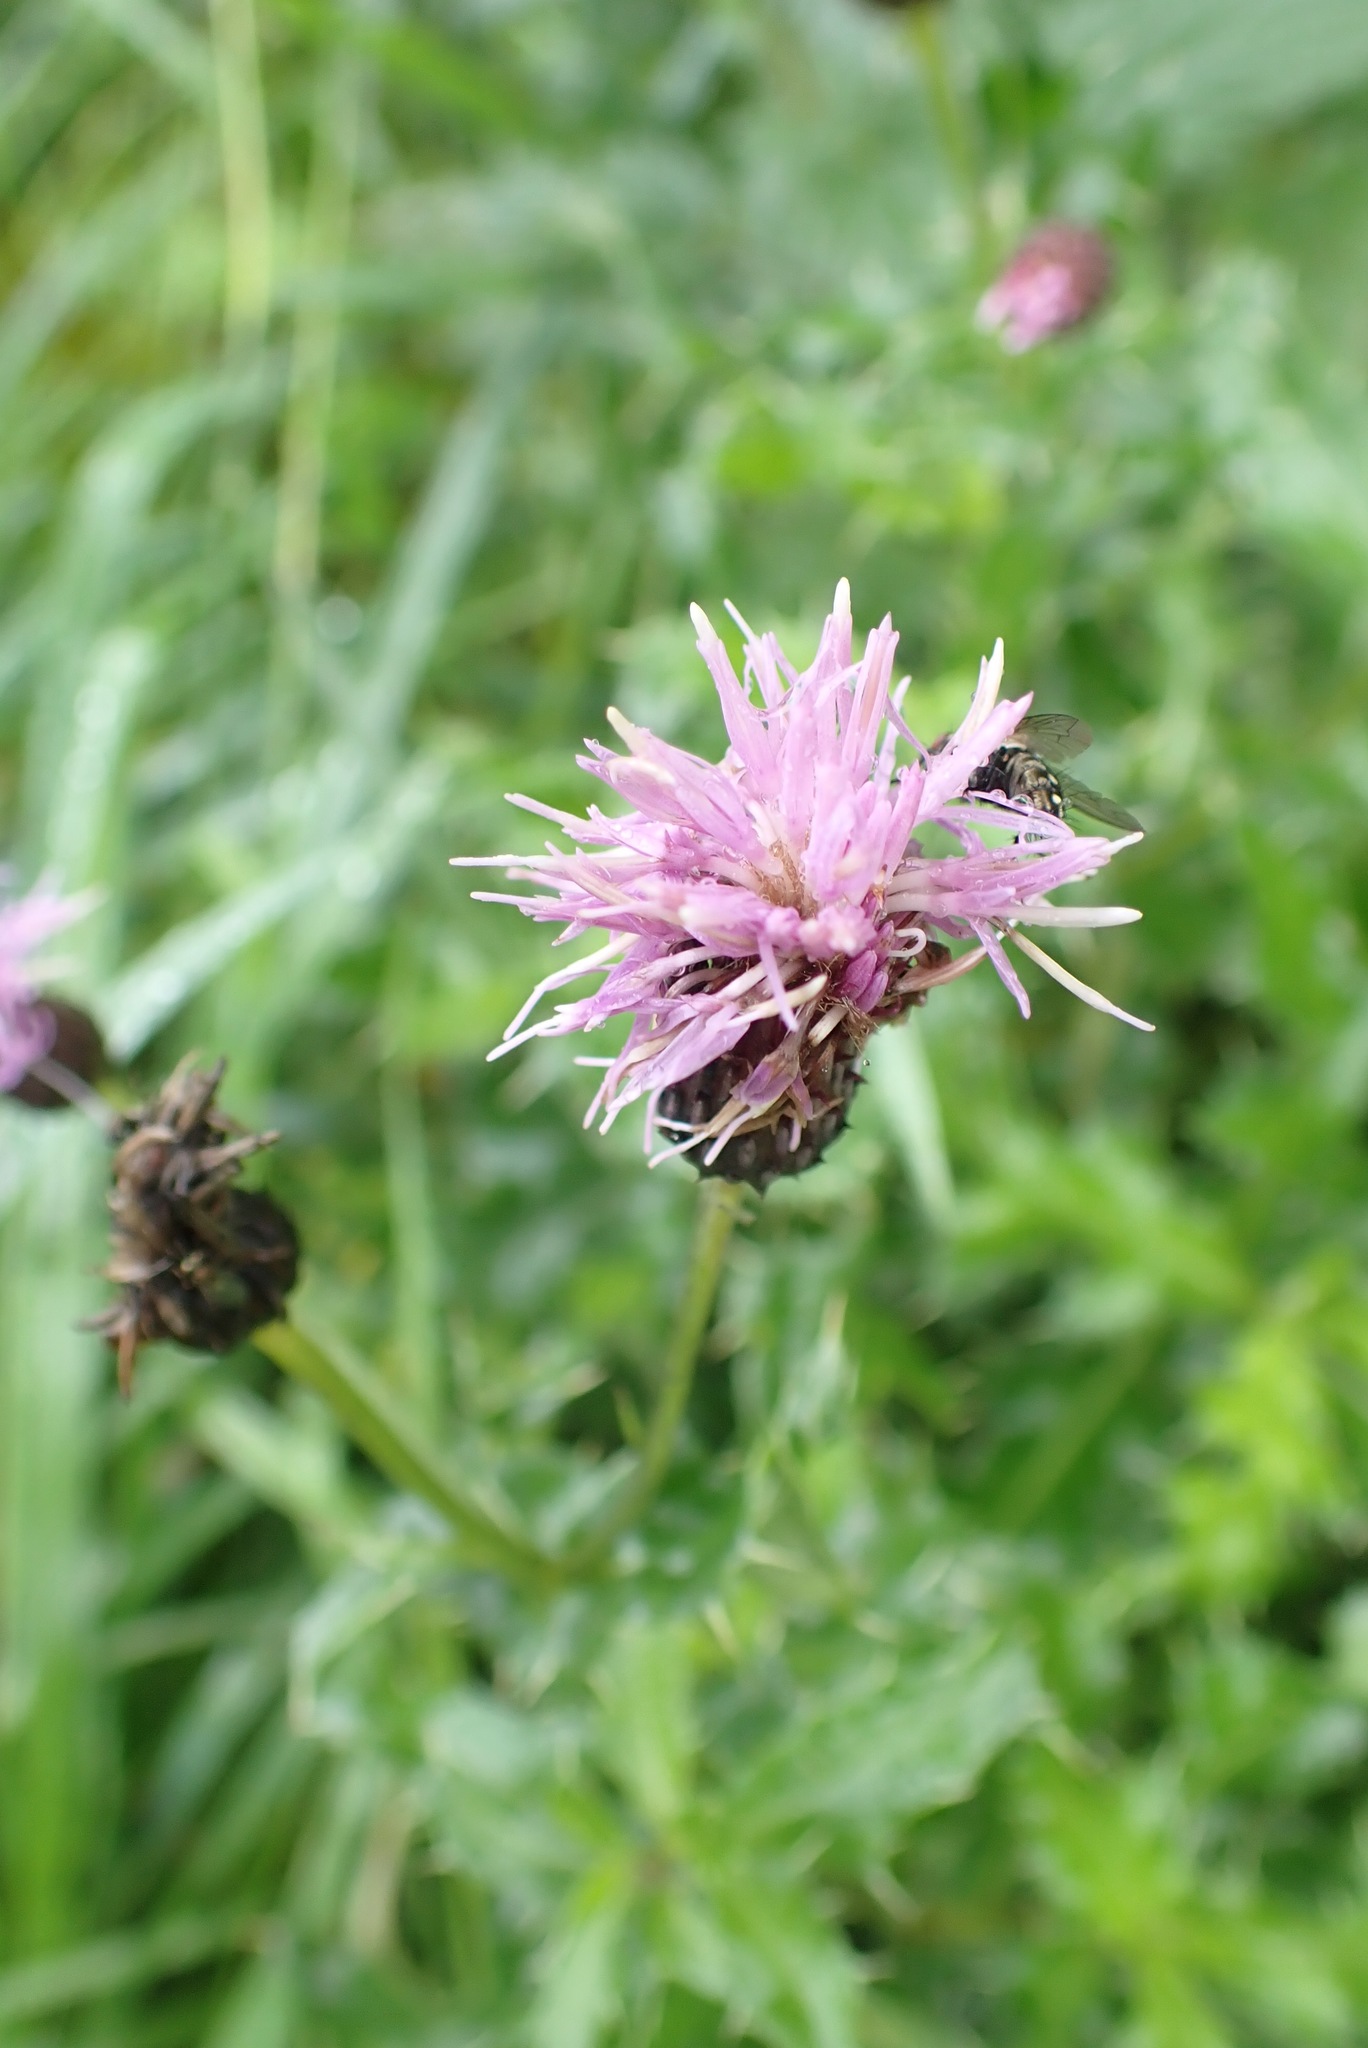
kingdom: Plantae
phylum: Tracheophyta
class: Magnoliopsida
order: Asterales
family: Asteraceae
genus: Cirsium
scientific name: Cirsium arvense
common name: Creeping thistle
